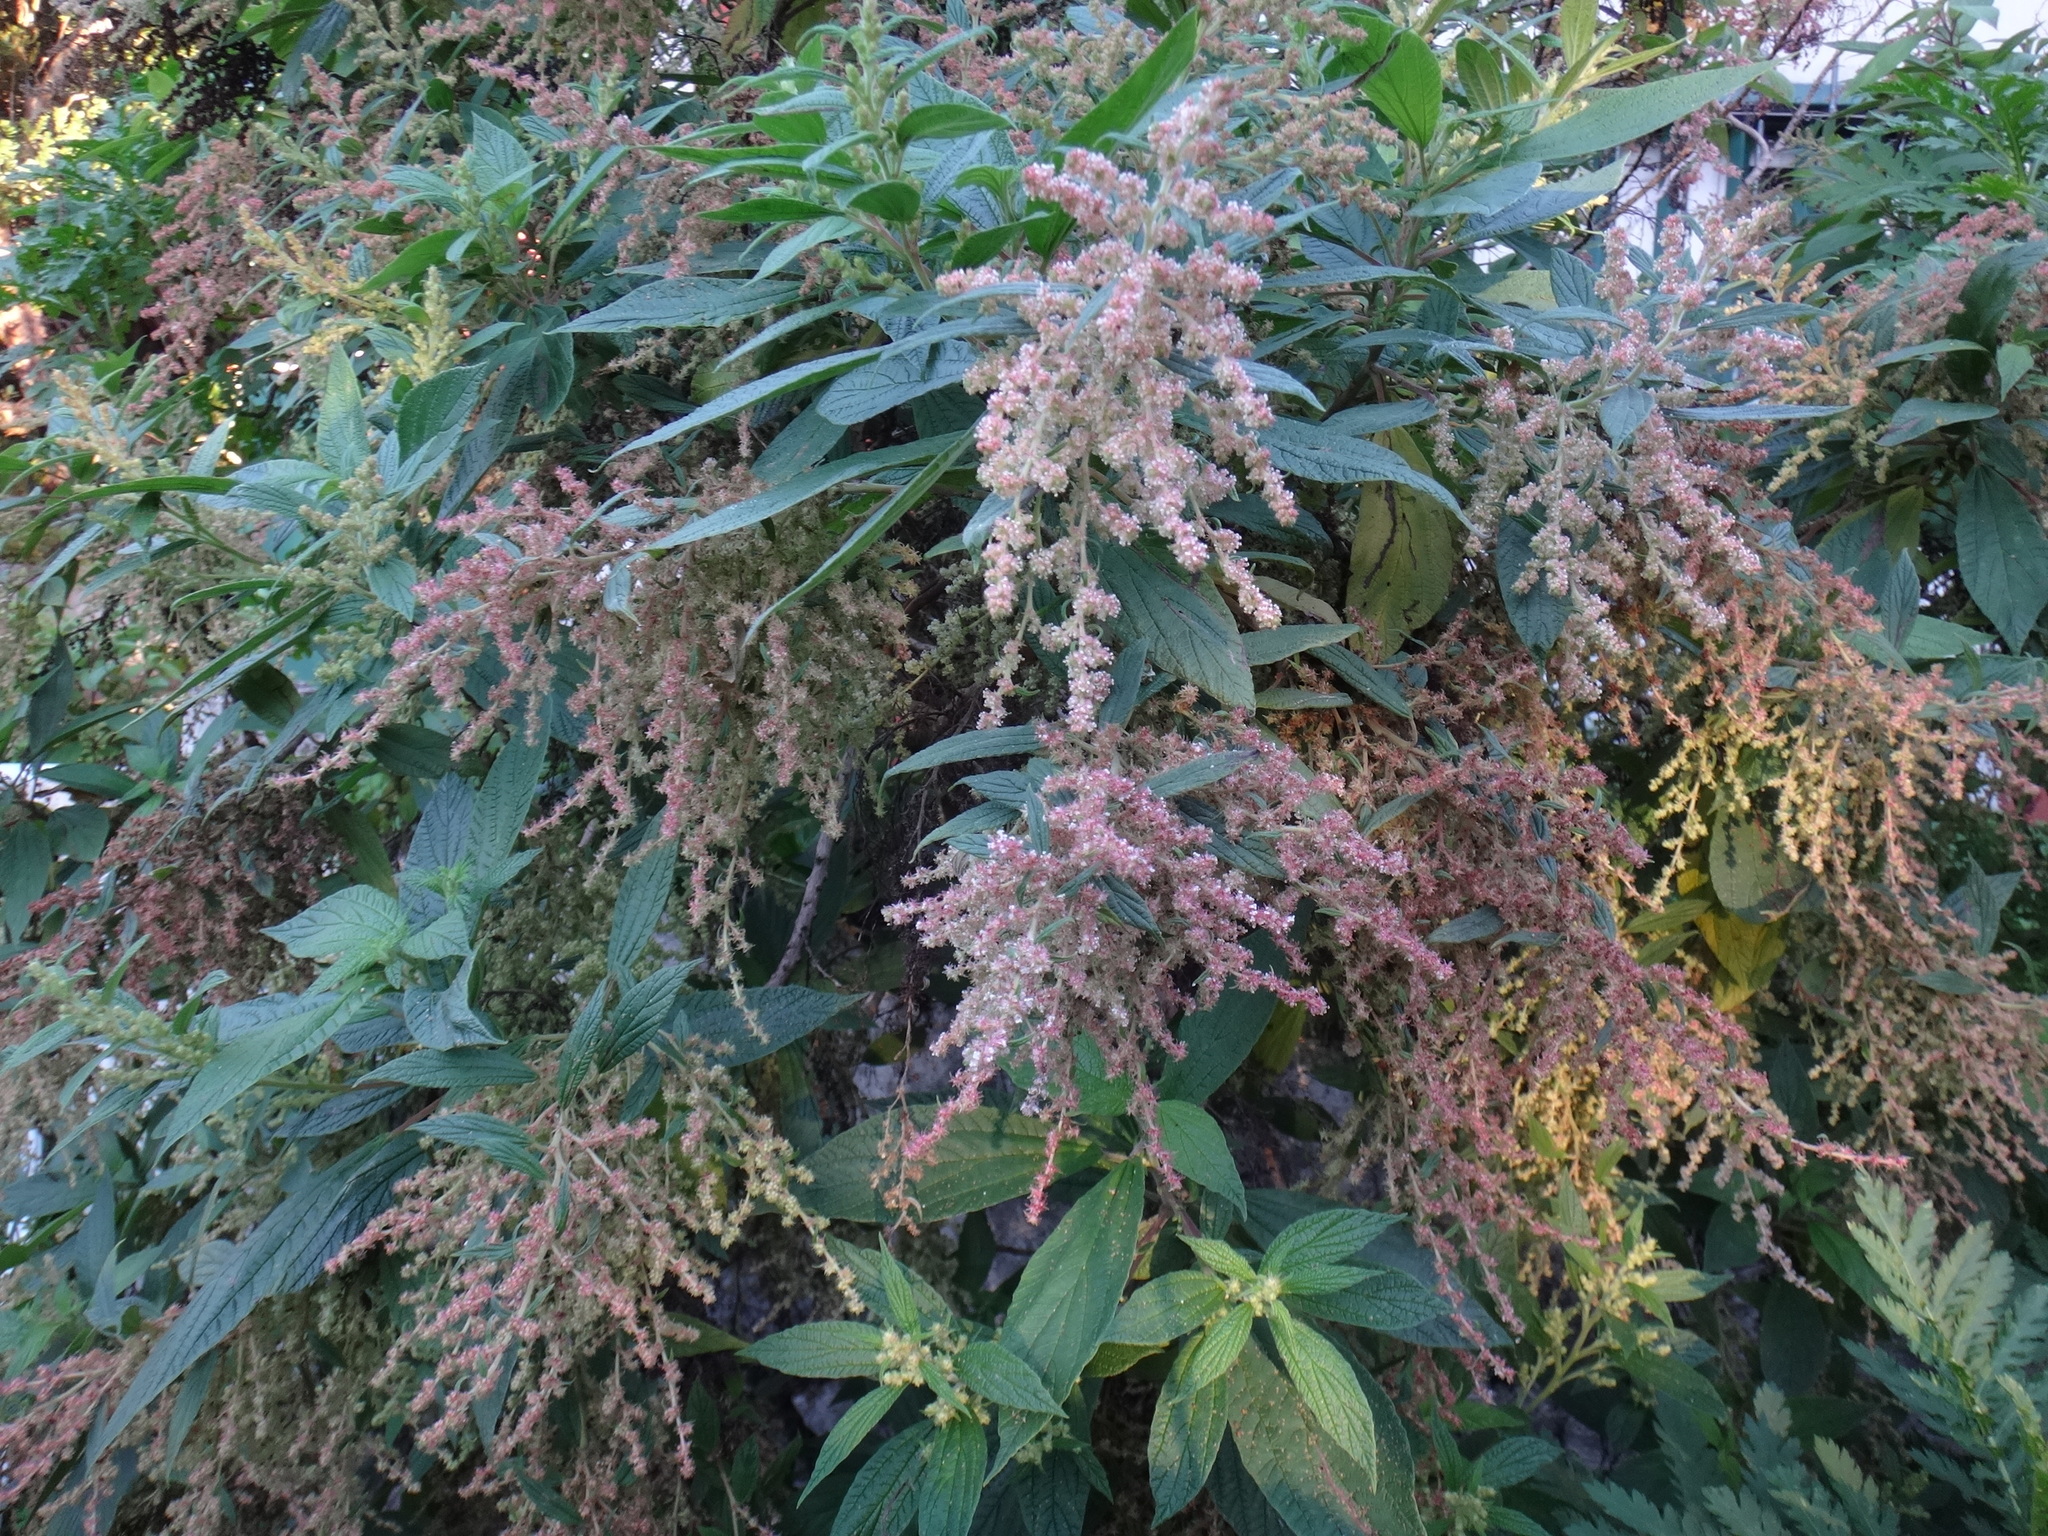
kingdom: Plantae
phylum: Tracheophyta
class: Magnoliopsida
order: Rosales
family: Urticaceae
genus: Gesnouinia
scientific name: Gesnouinia arborea
